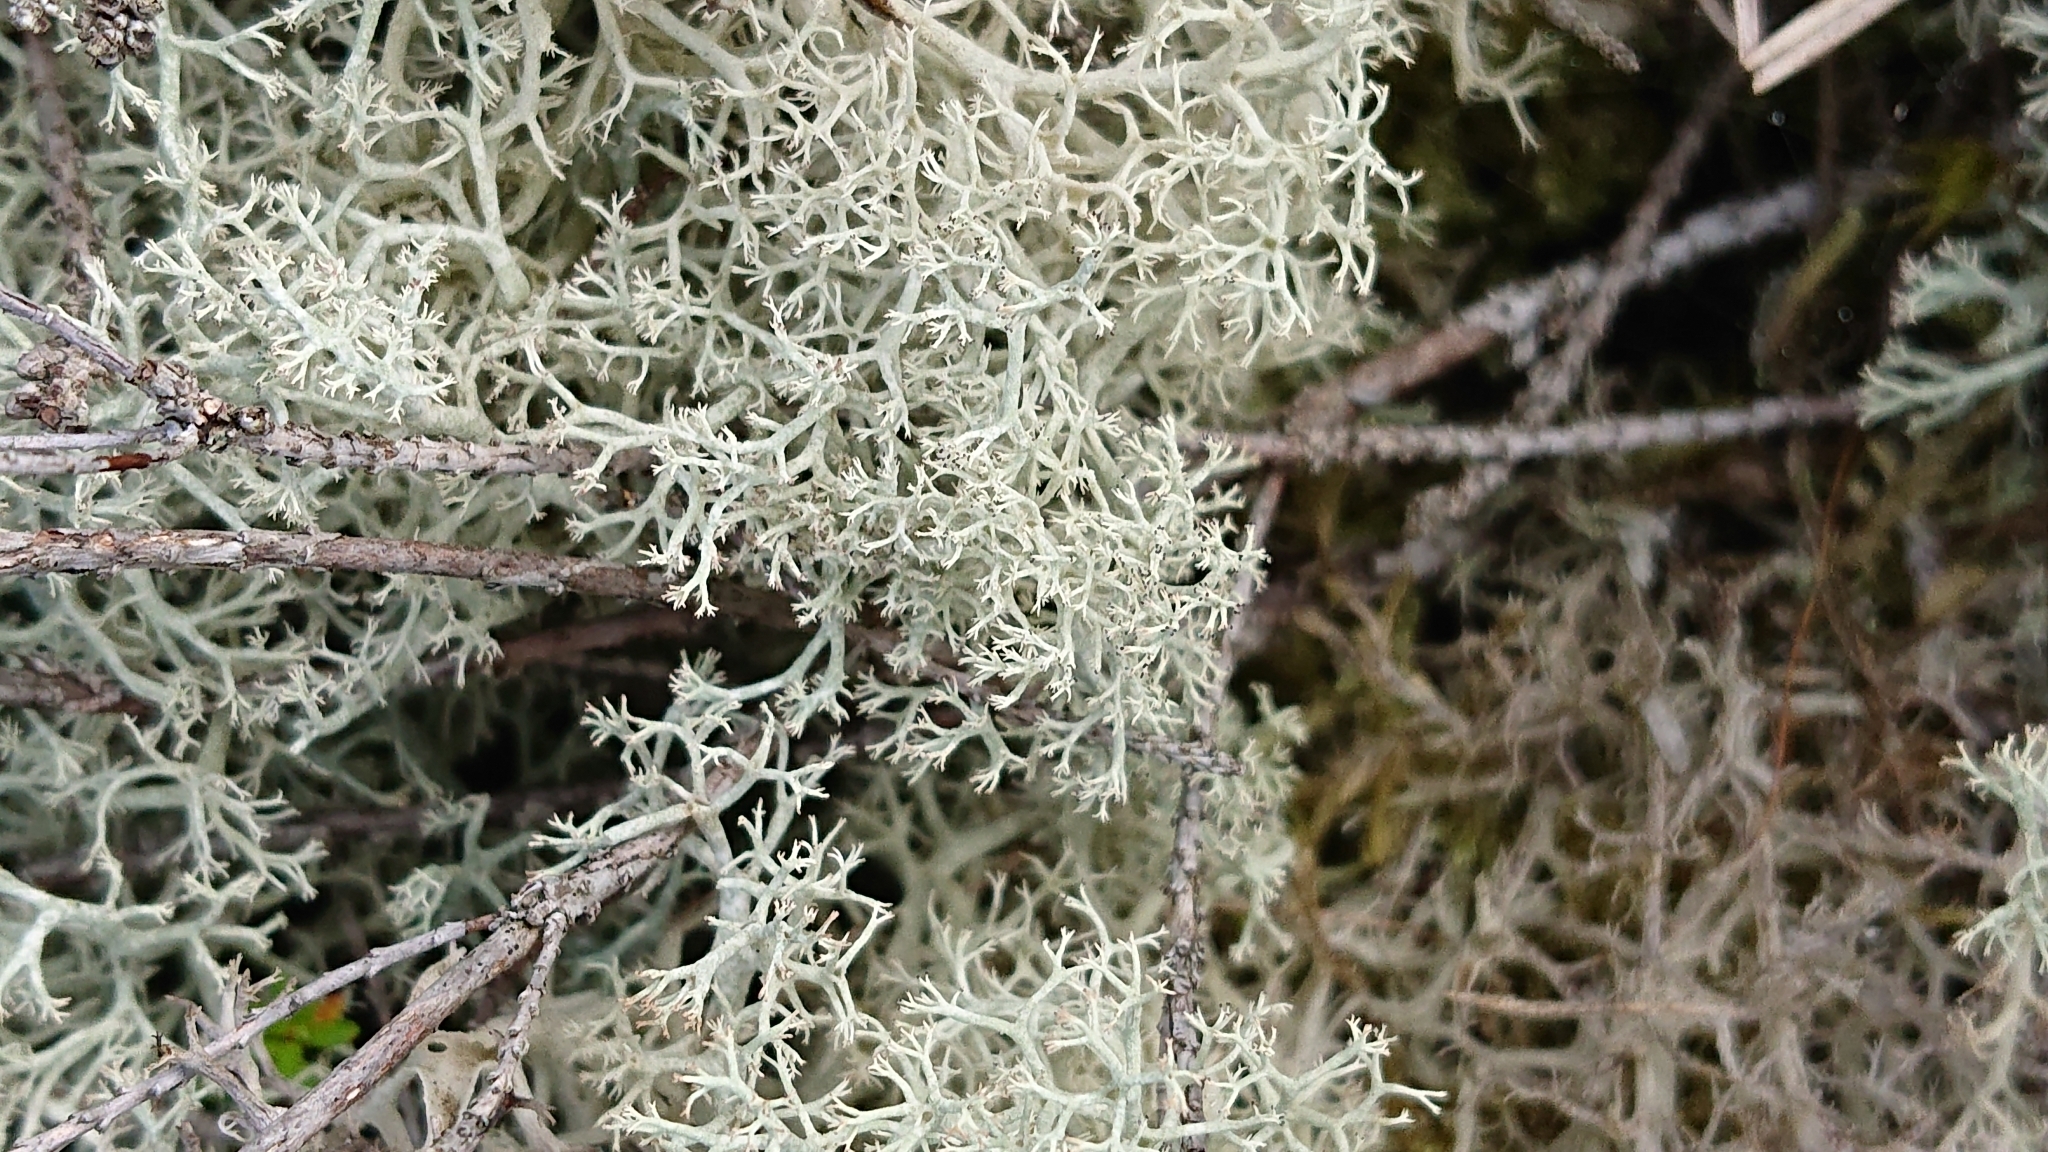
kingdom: Fungi
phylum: Ascomycota
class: Lecanoromycetes
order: Lecanorales
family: Cladoniaceae
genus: Cladonia
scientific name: Cladonia portentosa
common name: Reindeer lichen
